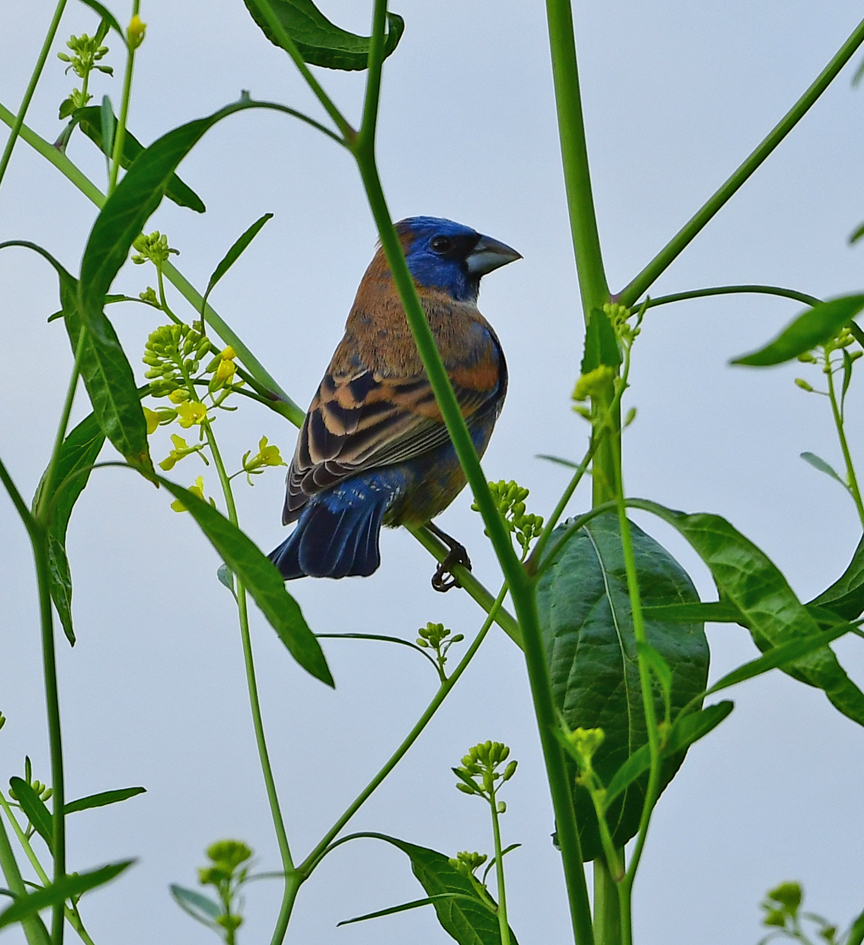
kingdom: Animalia
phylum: Chordata
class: Aves
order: Passeriformes
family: Cardinalidae
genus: Passerina
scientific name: Passerina caerulea
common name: Blue grosbeak
